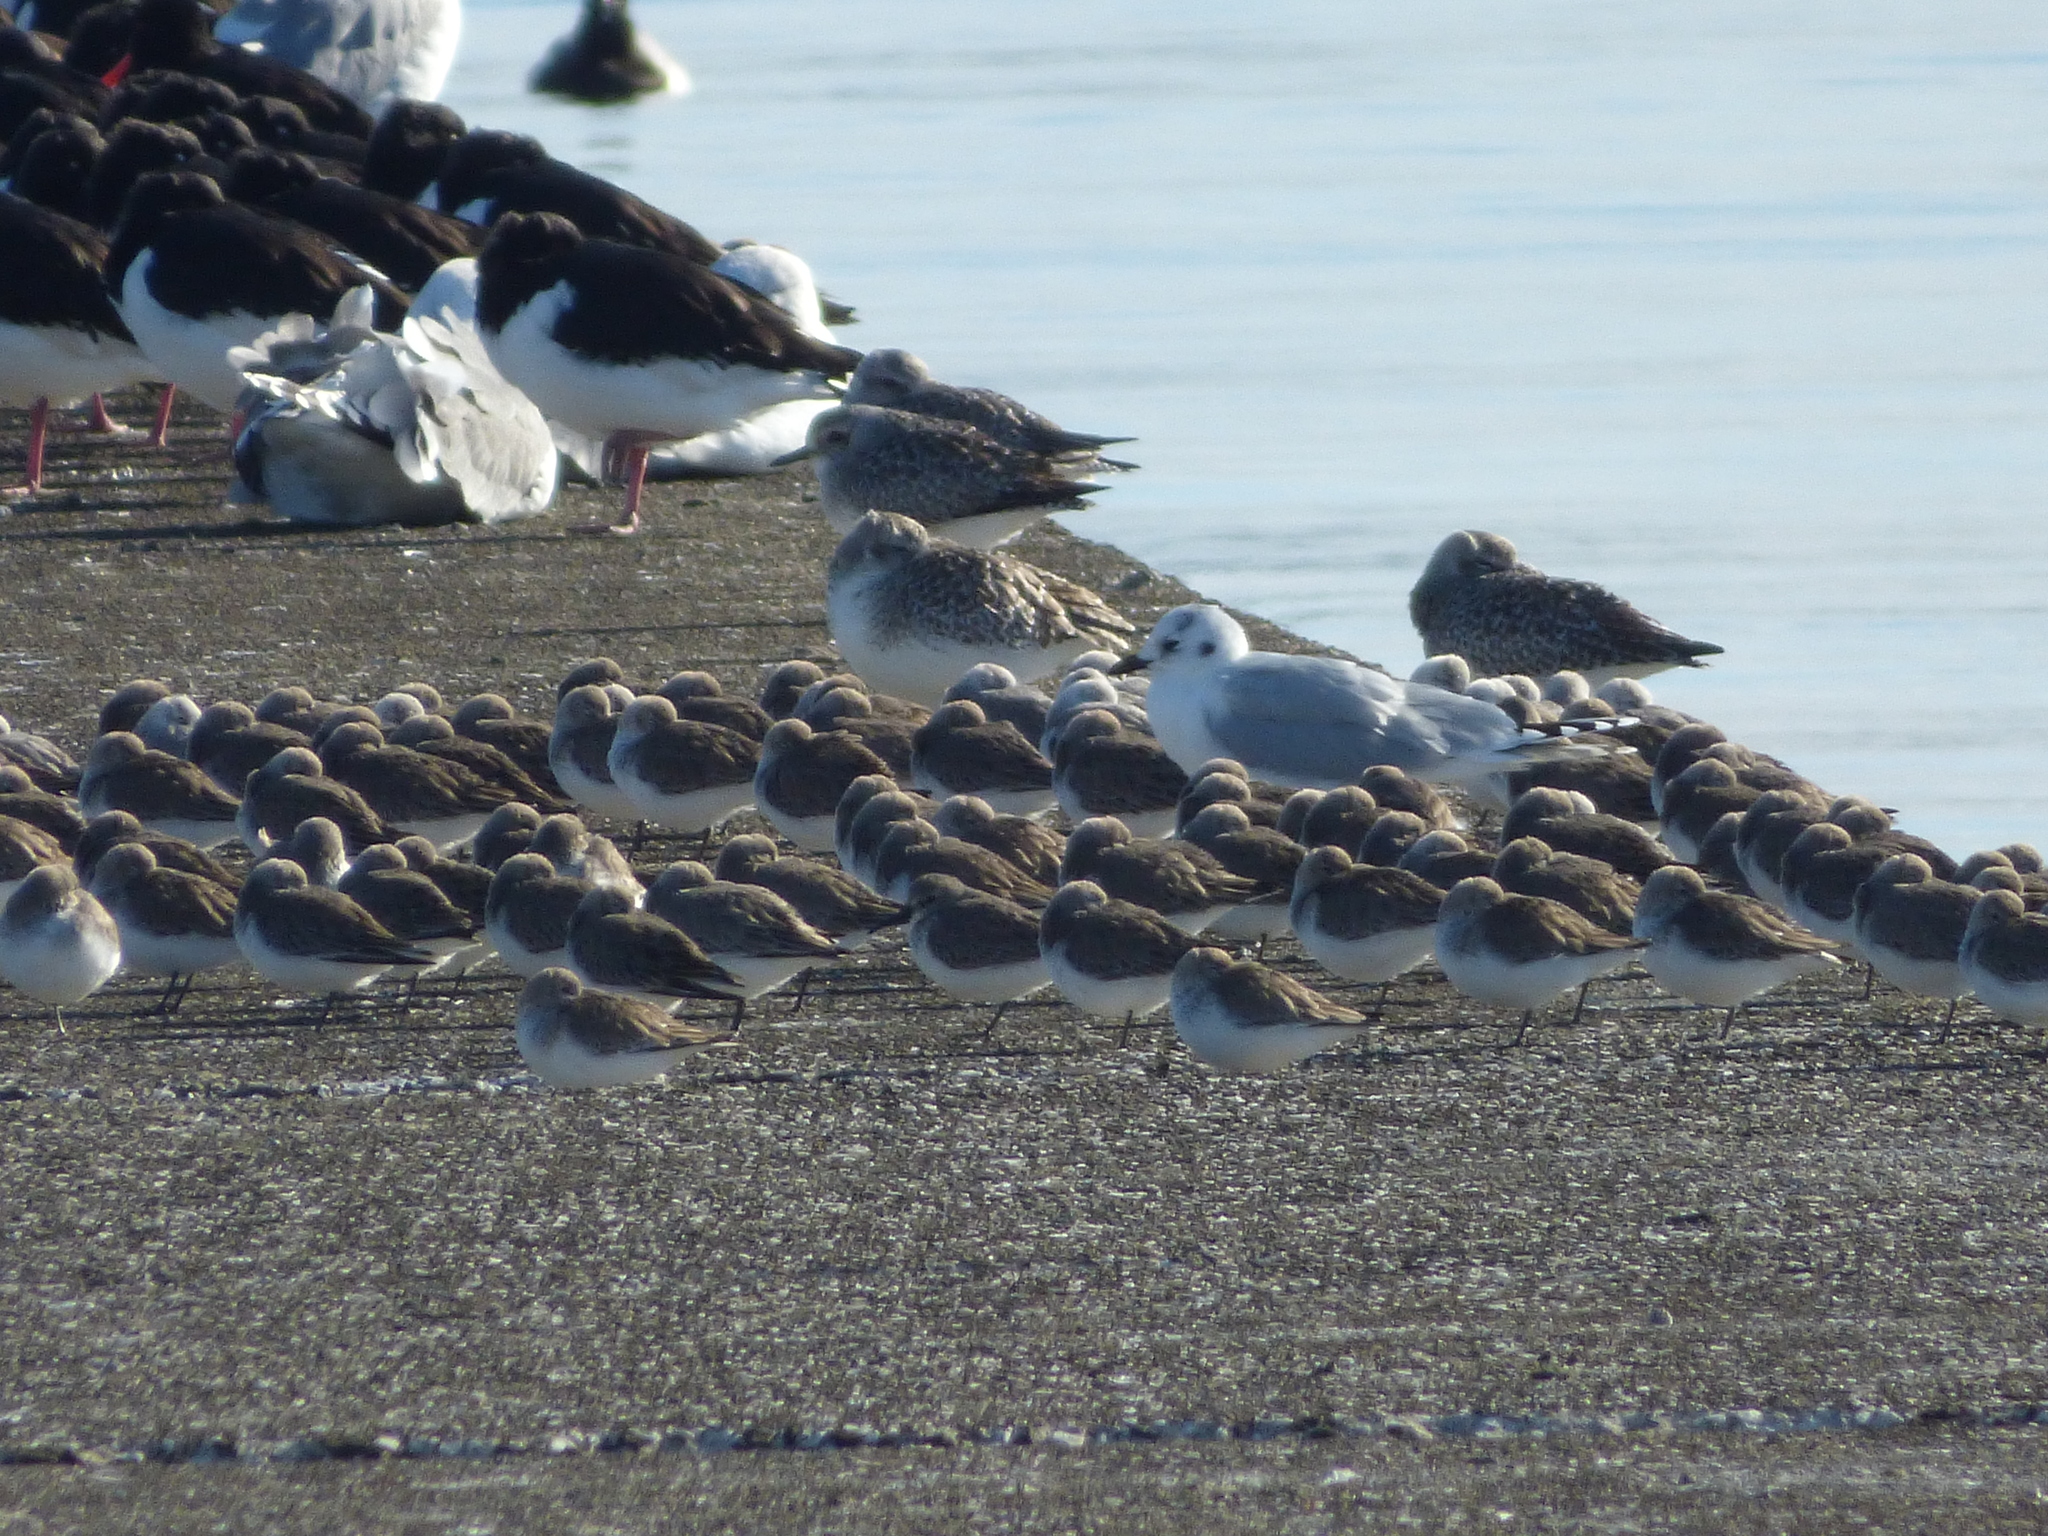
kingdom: Animalia
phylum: Chordata
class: Aves
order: Charadriiformes
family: Laridae
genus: Chroicocephalus
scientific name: Chroicocephalus saundersi
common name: Saunders's gull
